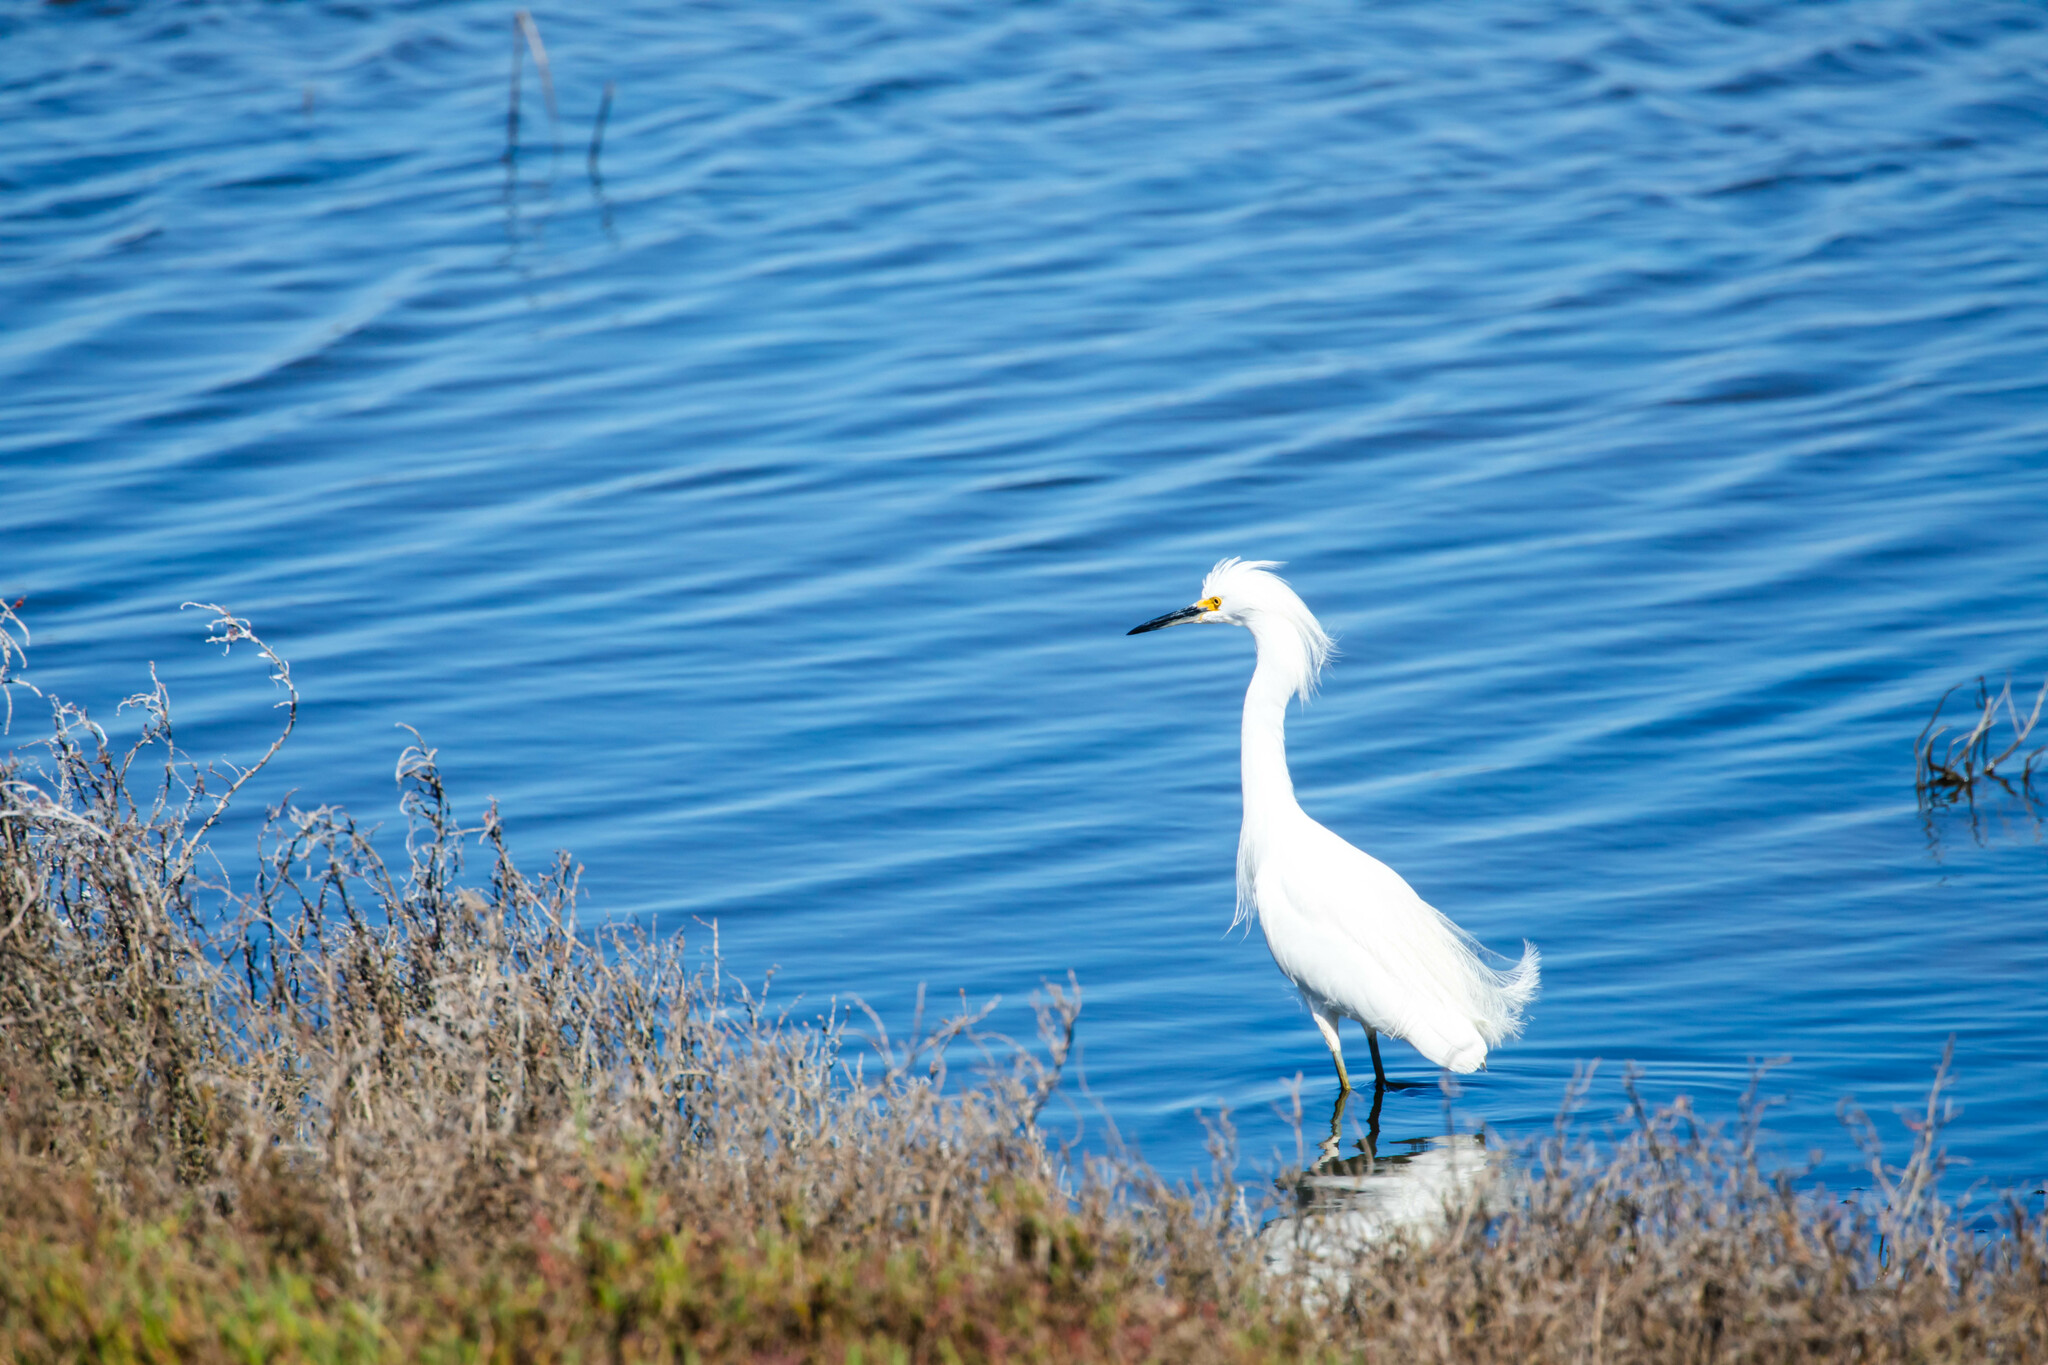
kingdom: Animalia
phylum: Chordata
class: Aves
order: Pelecaniformes
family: Ardeidae
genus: Egretta
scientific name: Egretta thula
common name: Snowy egret
